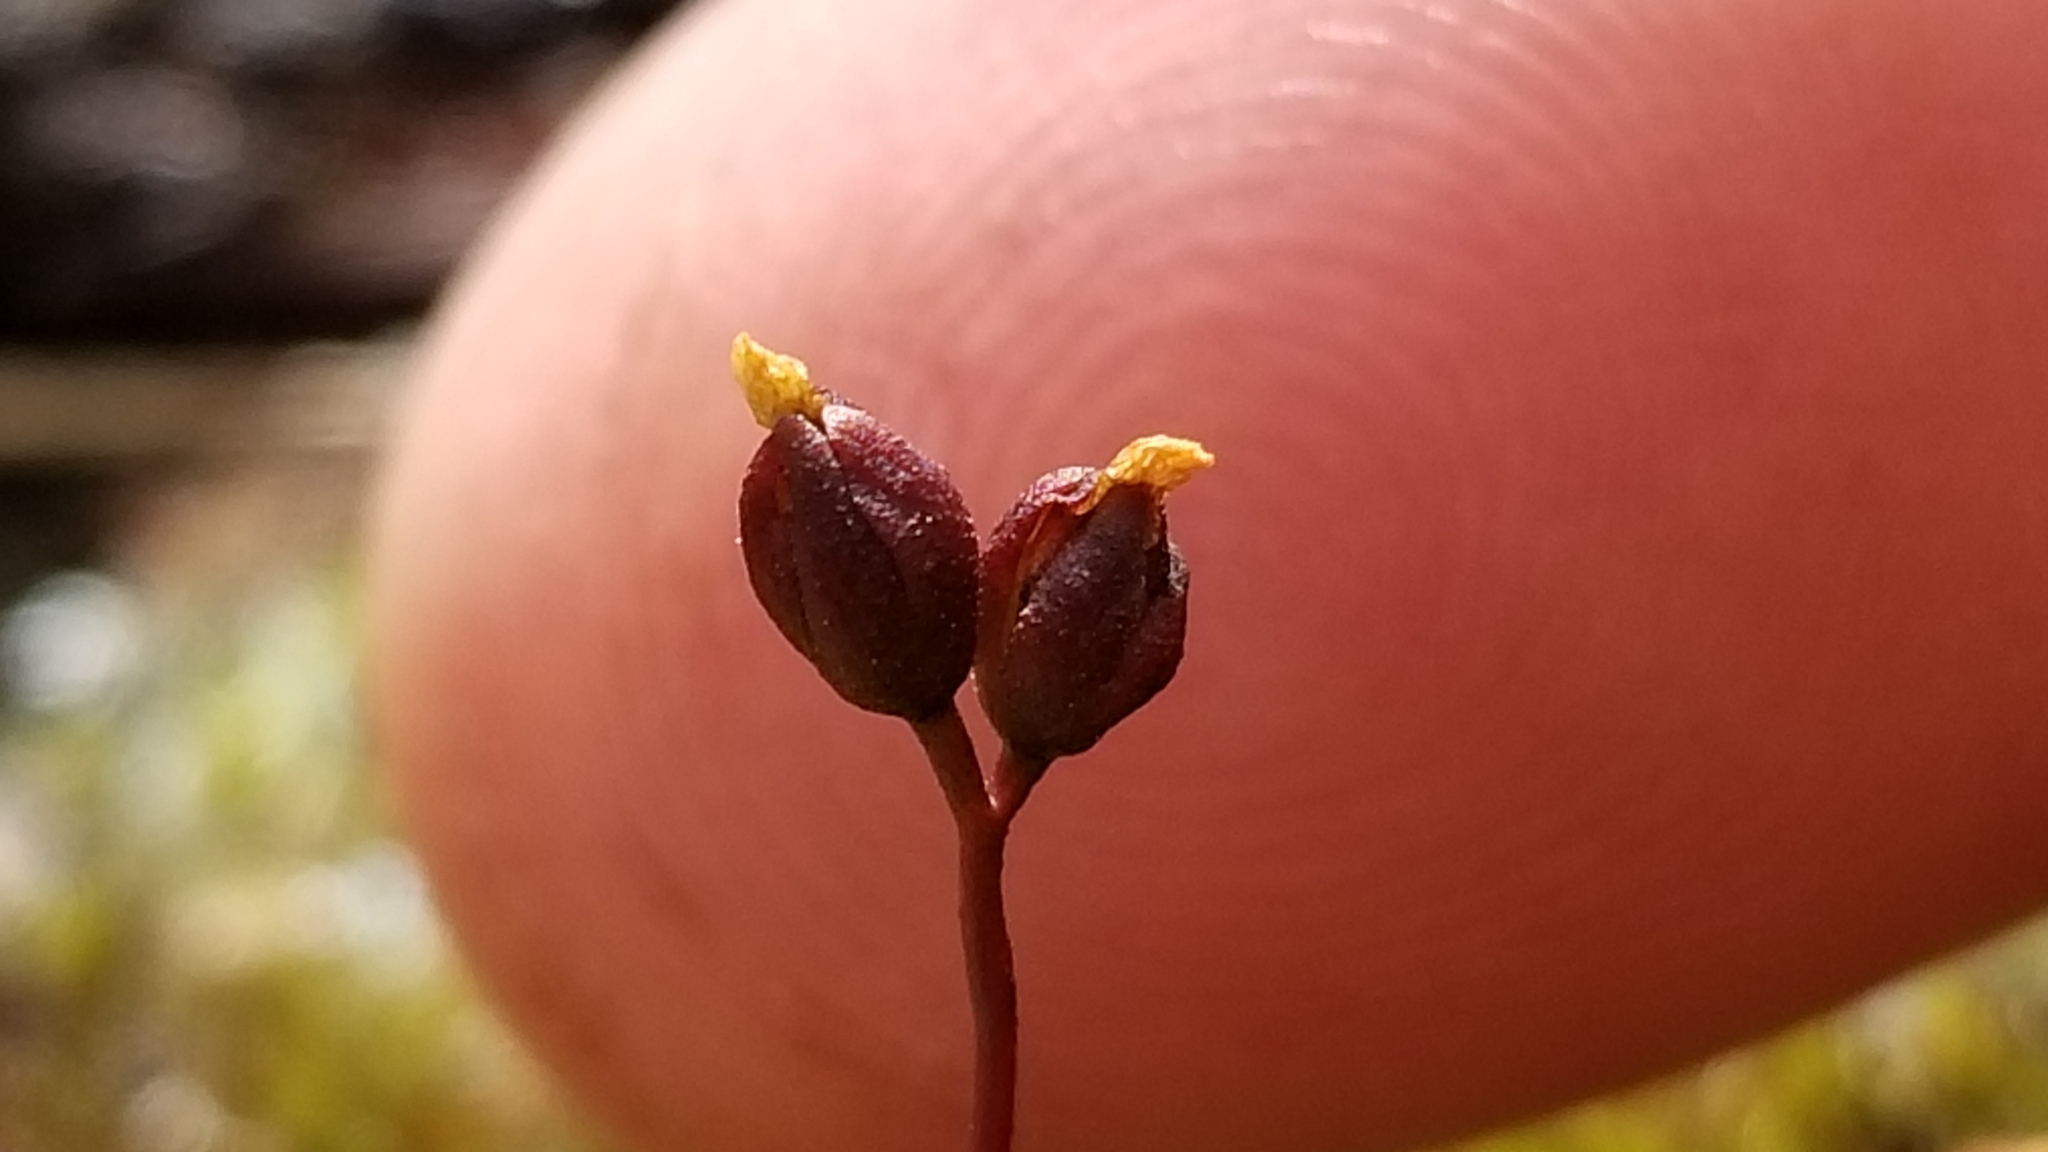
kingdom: Plantae
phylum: Tracheophyta
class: Magnoliopsida
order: Caryophyllales
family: Droseraceae
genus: Drosera
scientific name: Drosera spatulata
